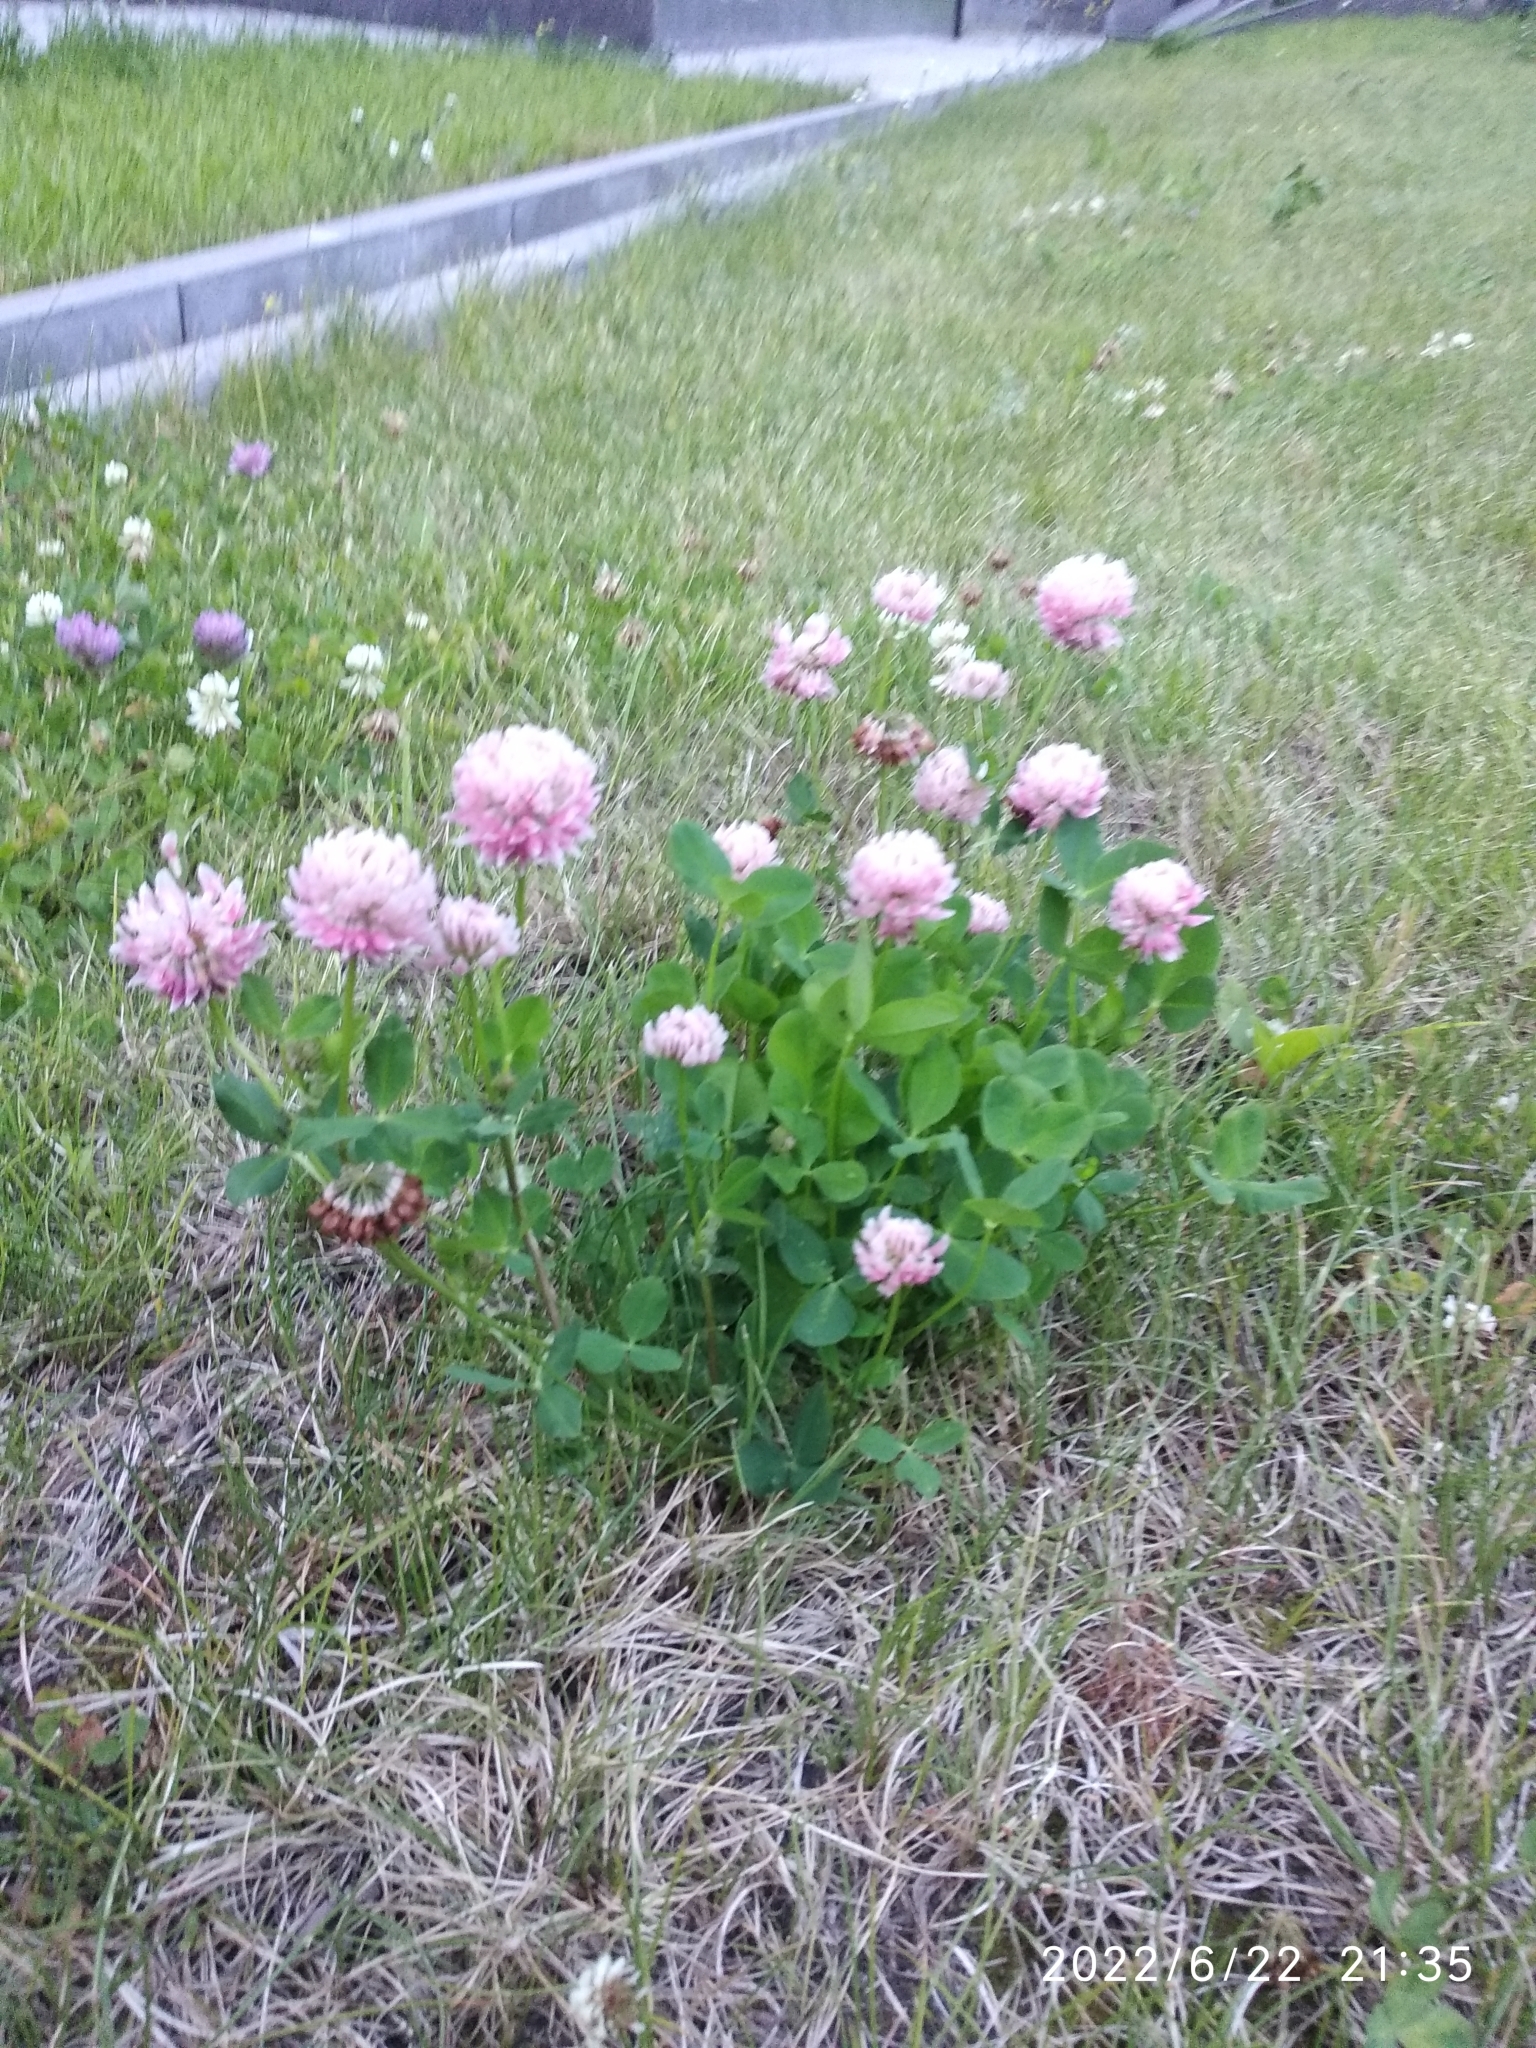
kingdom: Plantae
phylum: Tracheophyta
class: Magnoliopsida
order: Fabales
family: Fabaceae
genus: Trifolium
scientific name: Trifolium hybridum
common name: Alsike clover
